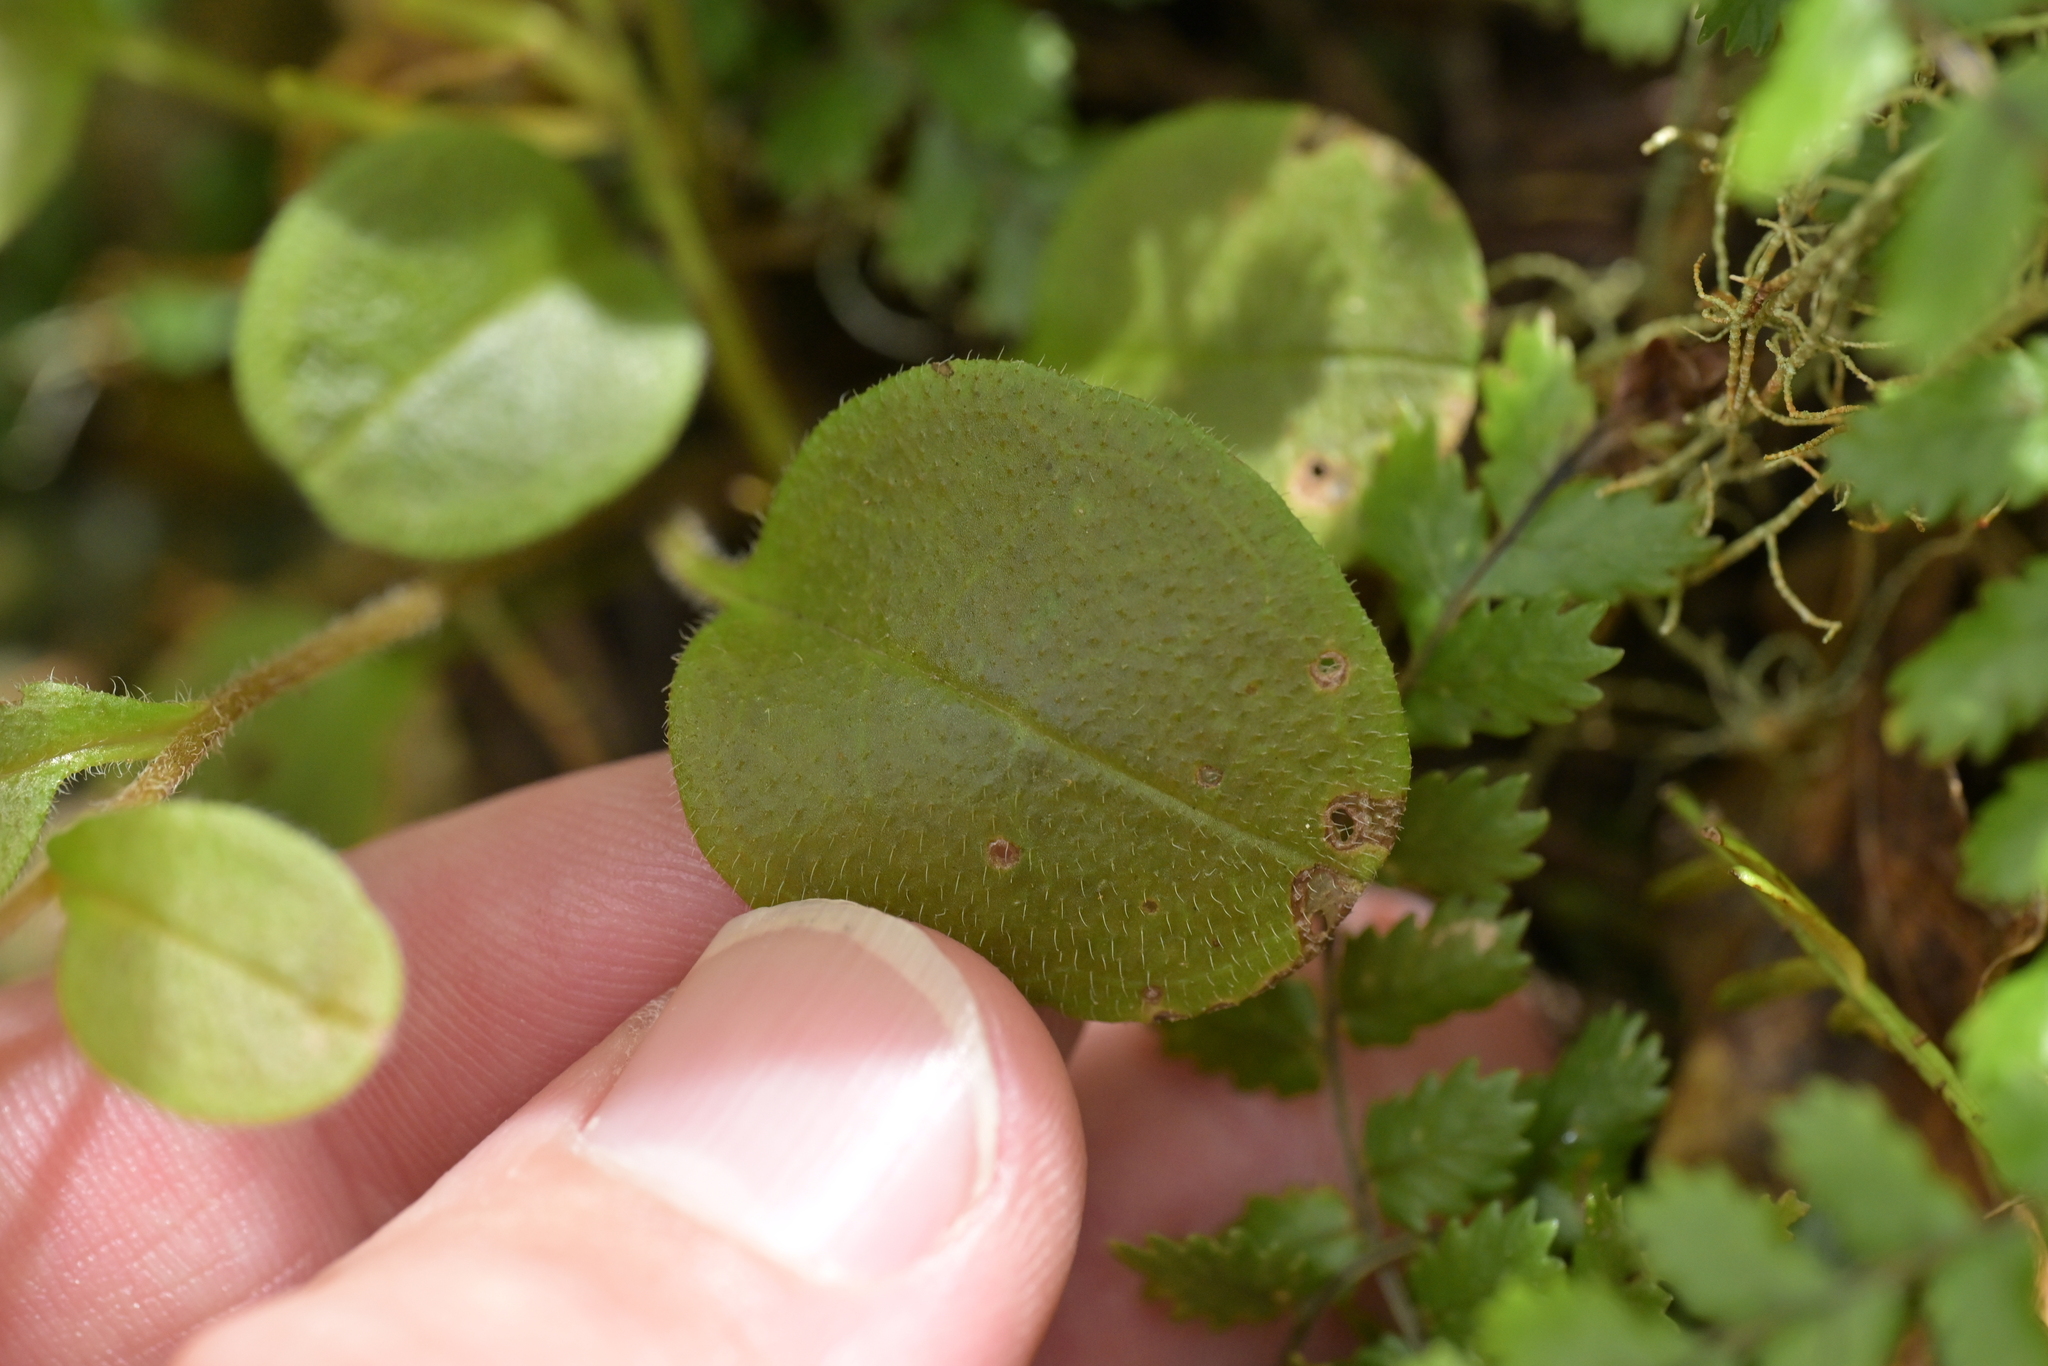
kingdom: Plantae
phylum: Tracheophyta
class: Magnoliopsida
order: Boraginales
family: Boraginaceae
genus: Myosotis
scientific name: Myosotis forsteri
